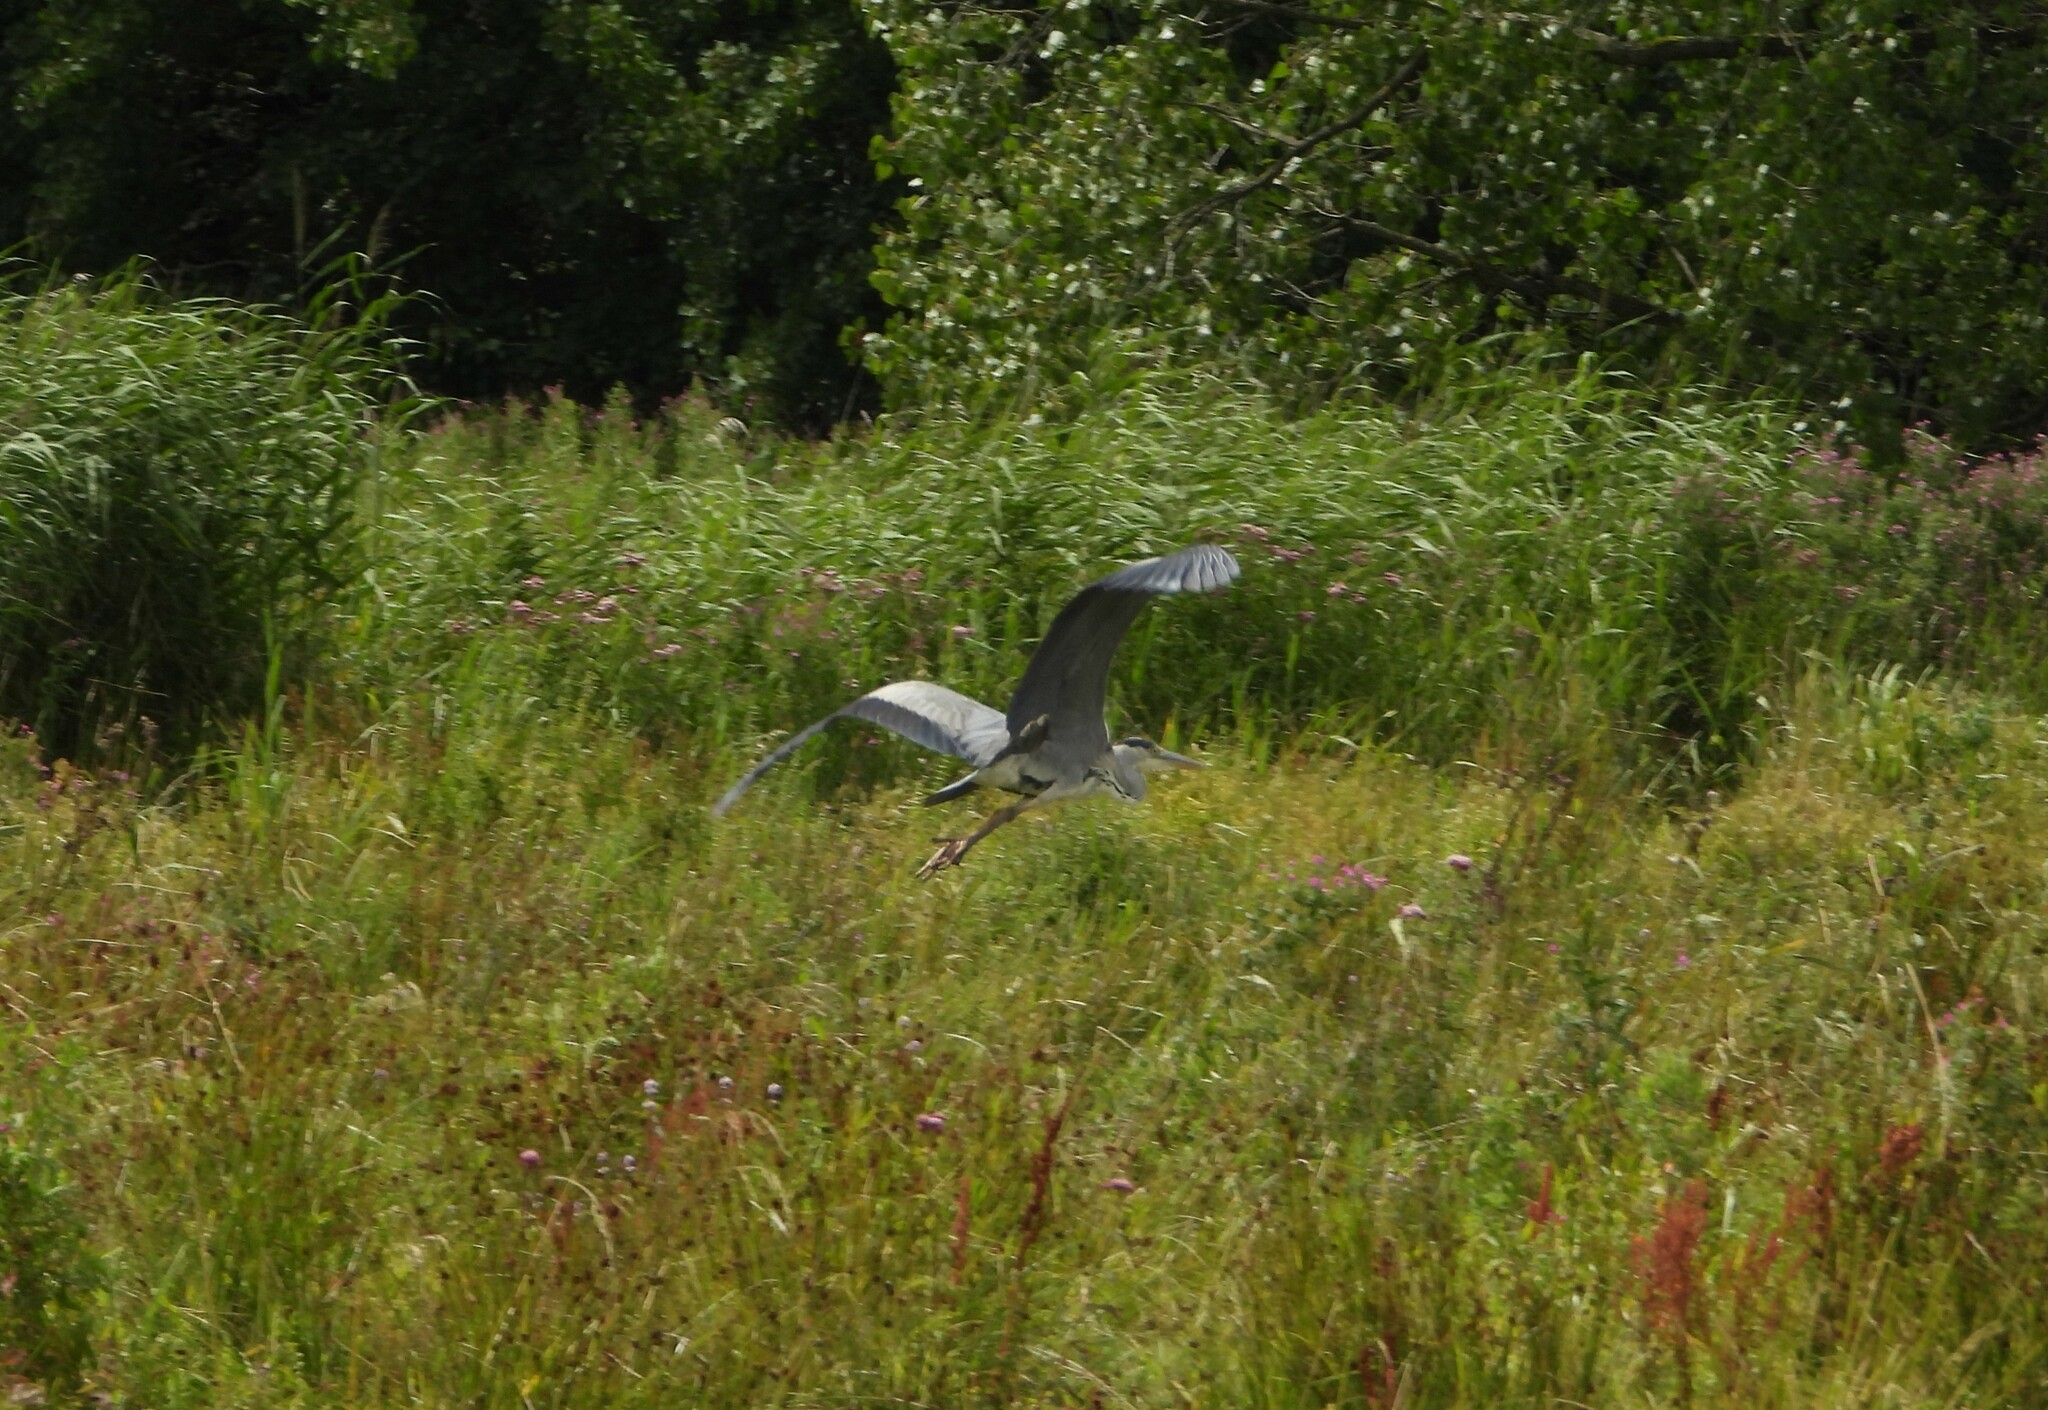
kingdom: Animalia
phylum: Chordata
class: Aves
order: Pelecaniformes
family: Ardeidae
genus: Ardea
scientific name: Ardea cinerea
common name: Grey heron
